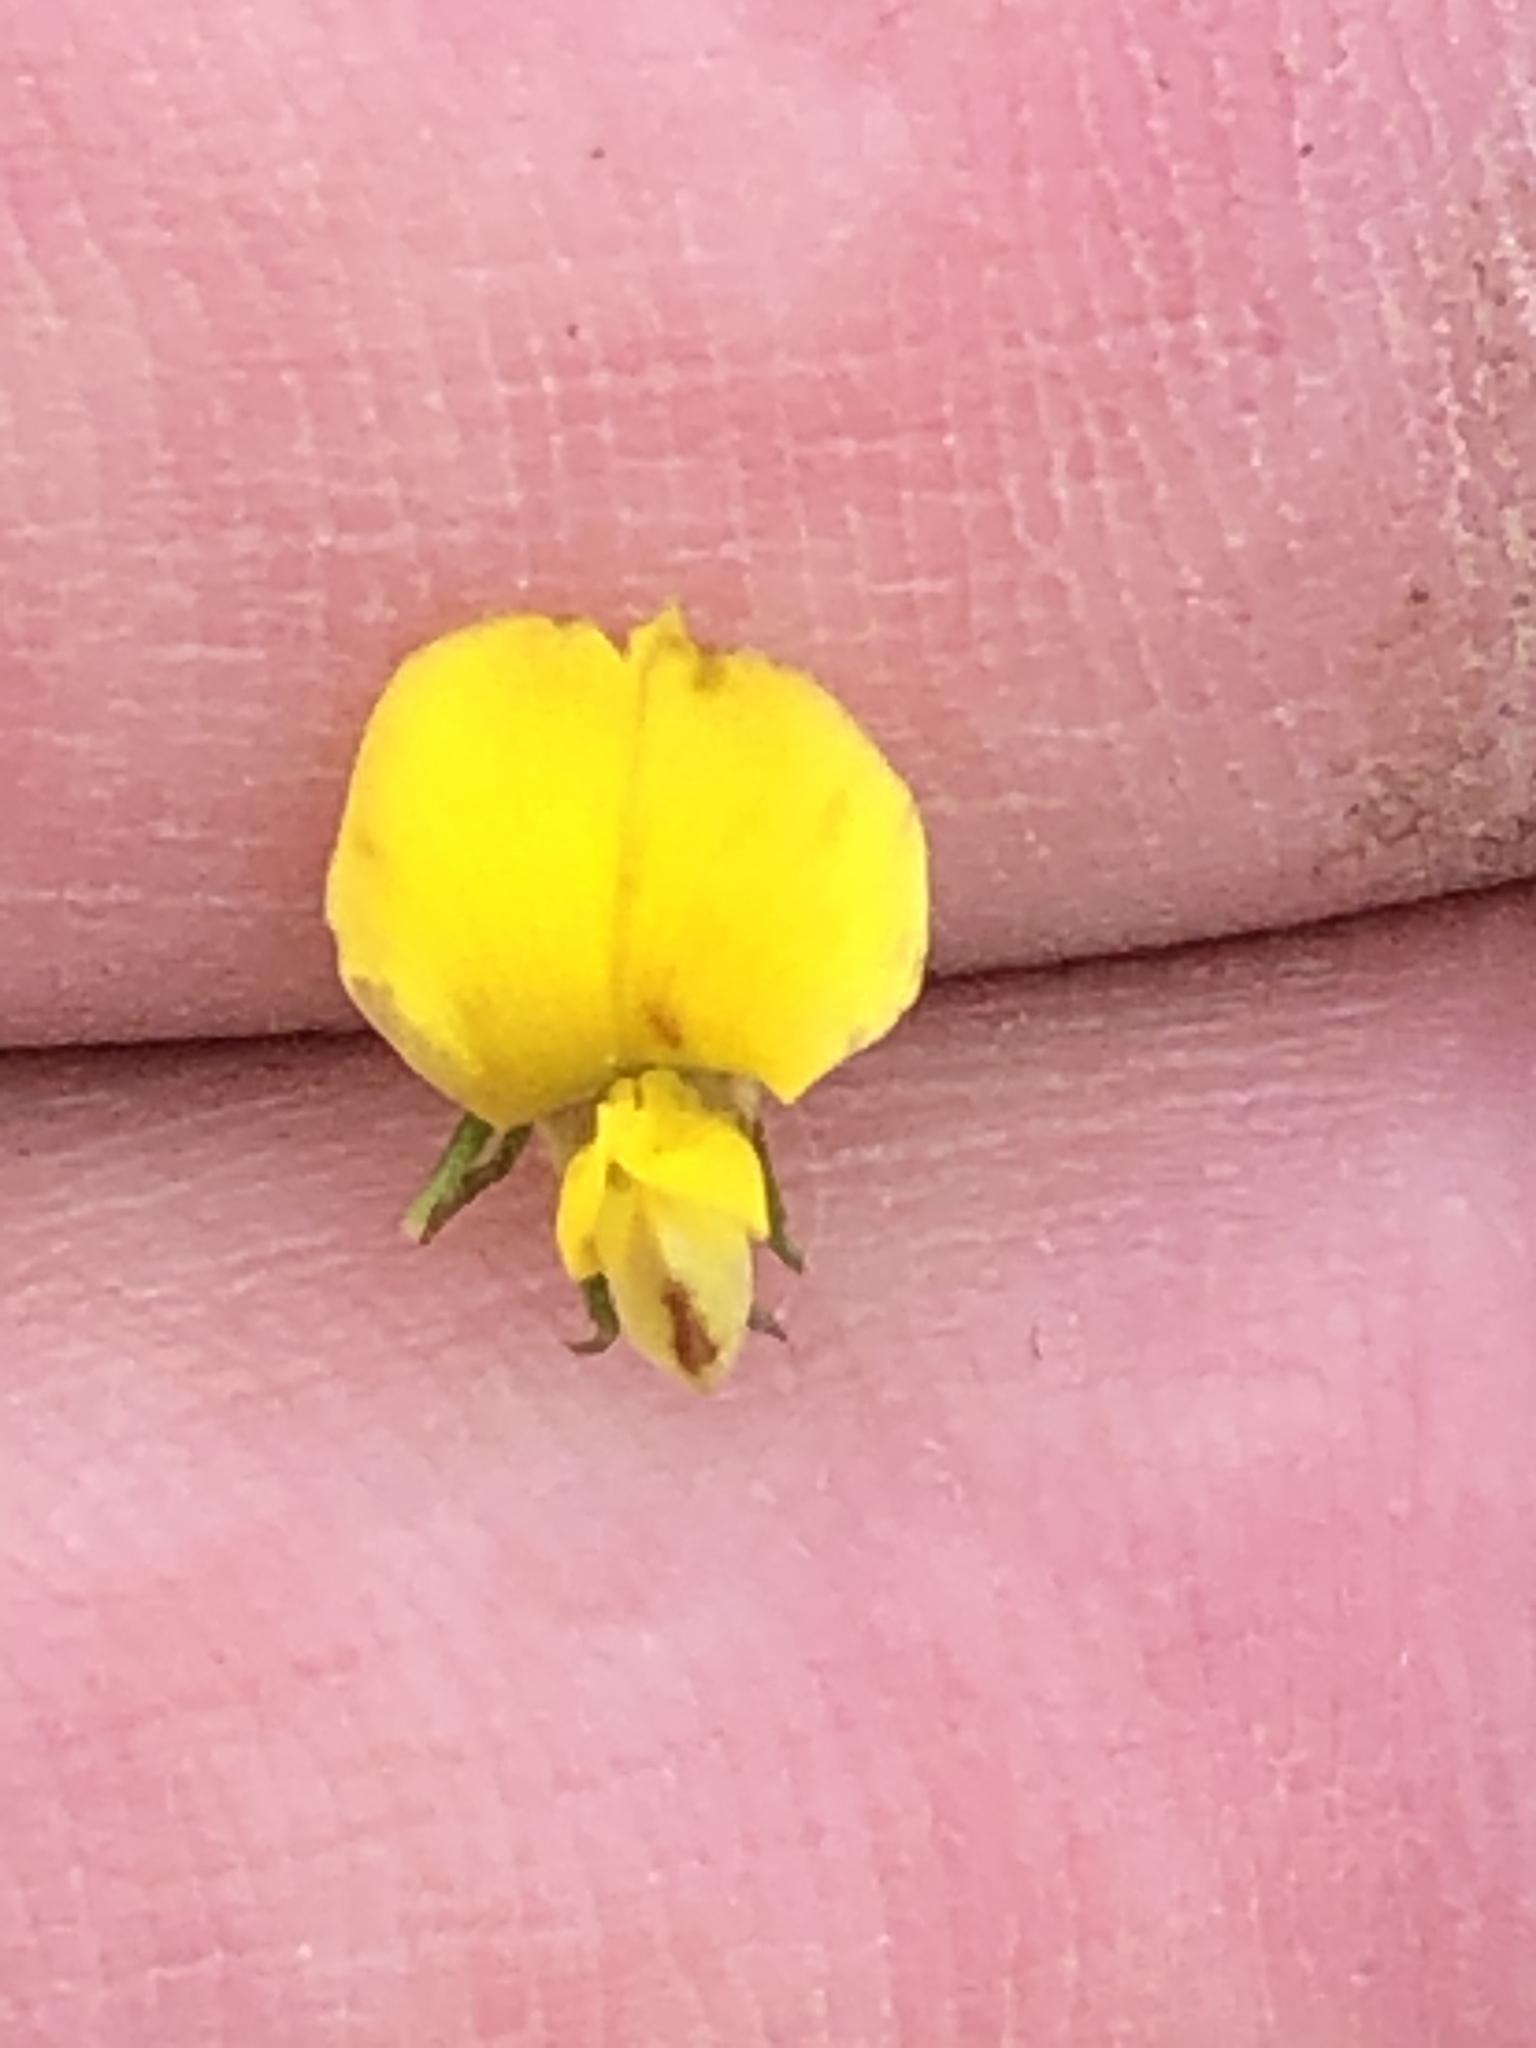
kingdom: Plantae
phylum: Tracheophyta
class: Magnoliopsida
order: Fabales
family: Fabaceae
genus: Aspalathus
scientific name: Aspalathus ciliaris
